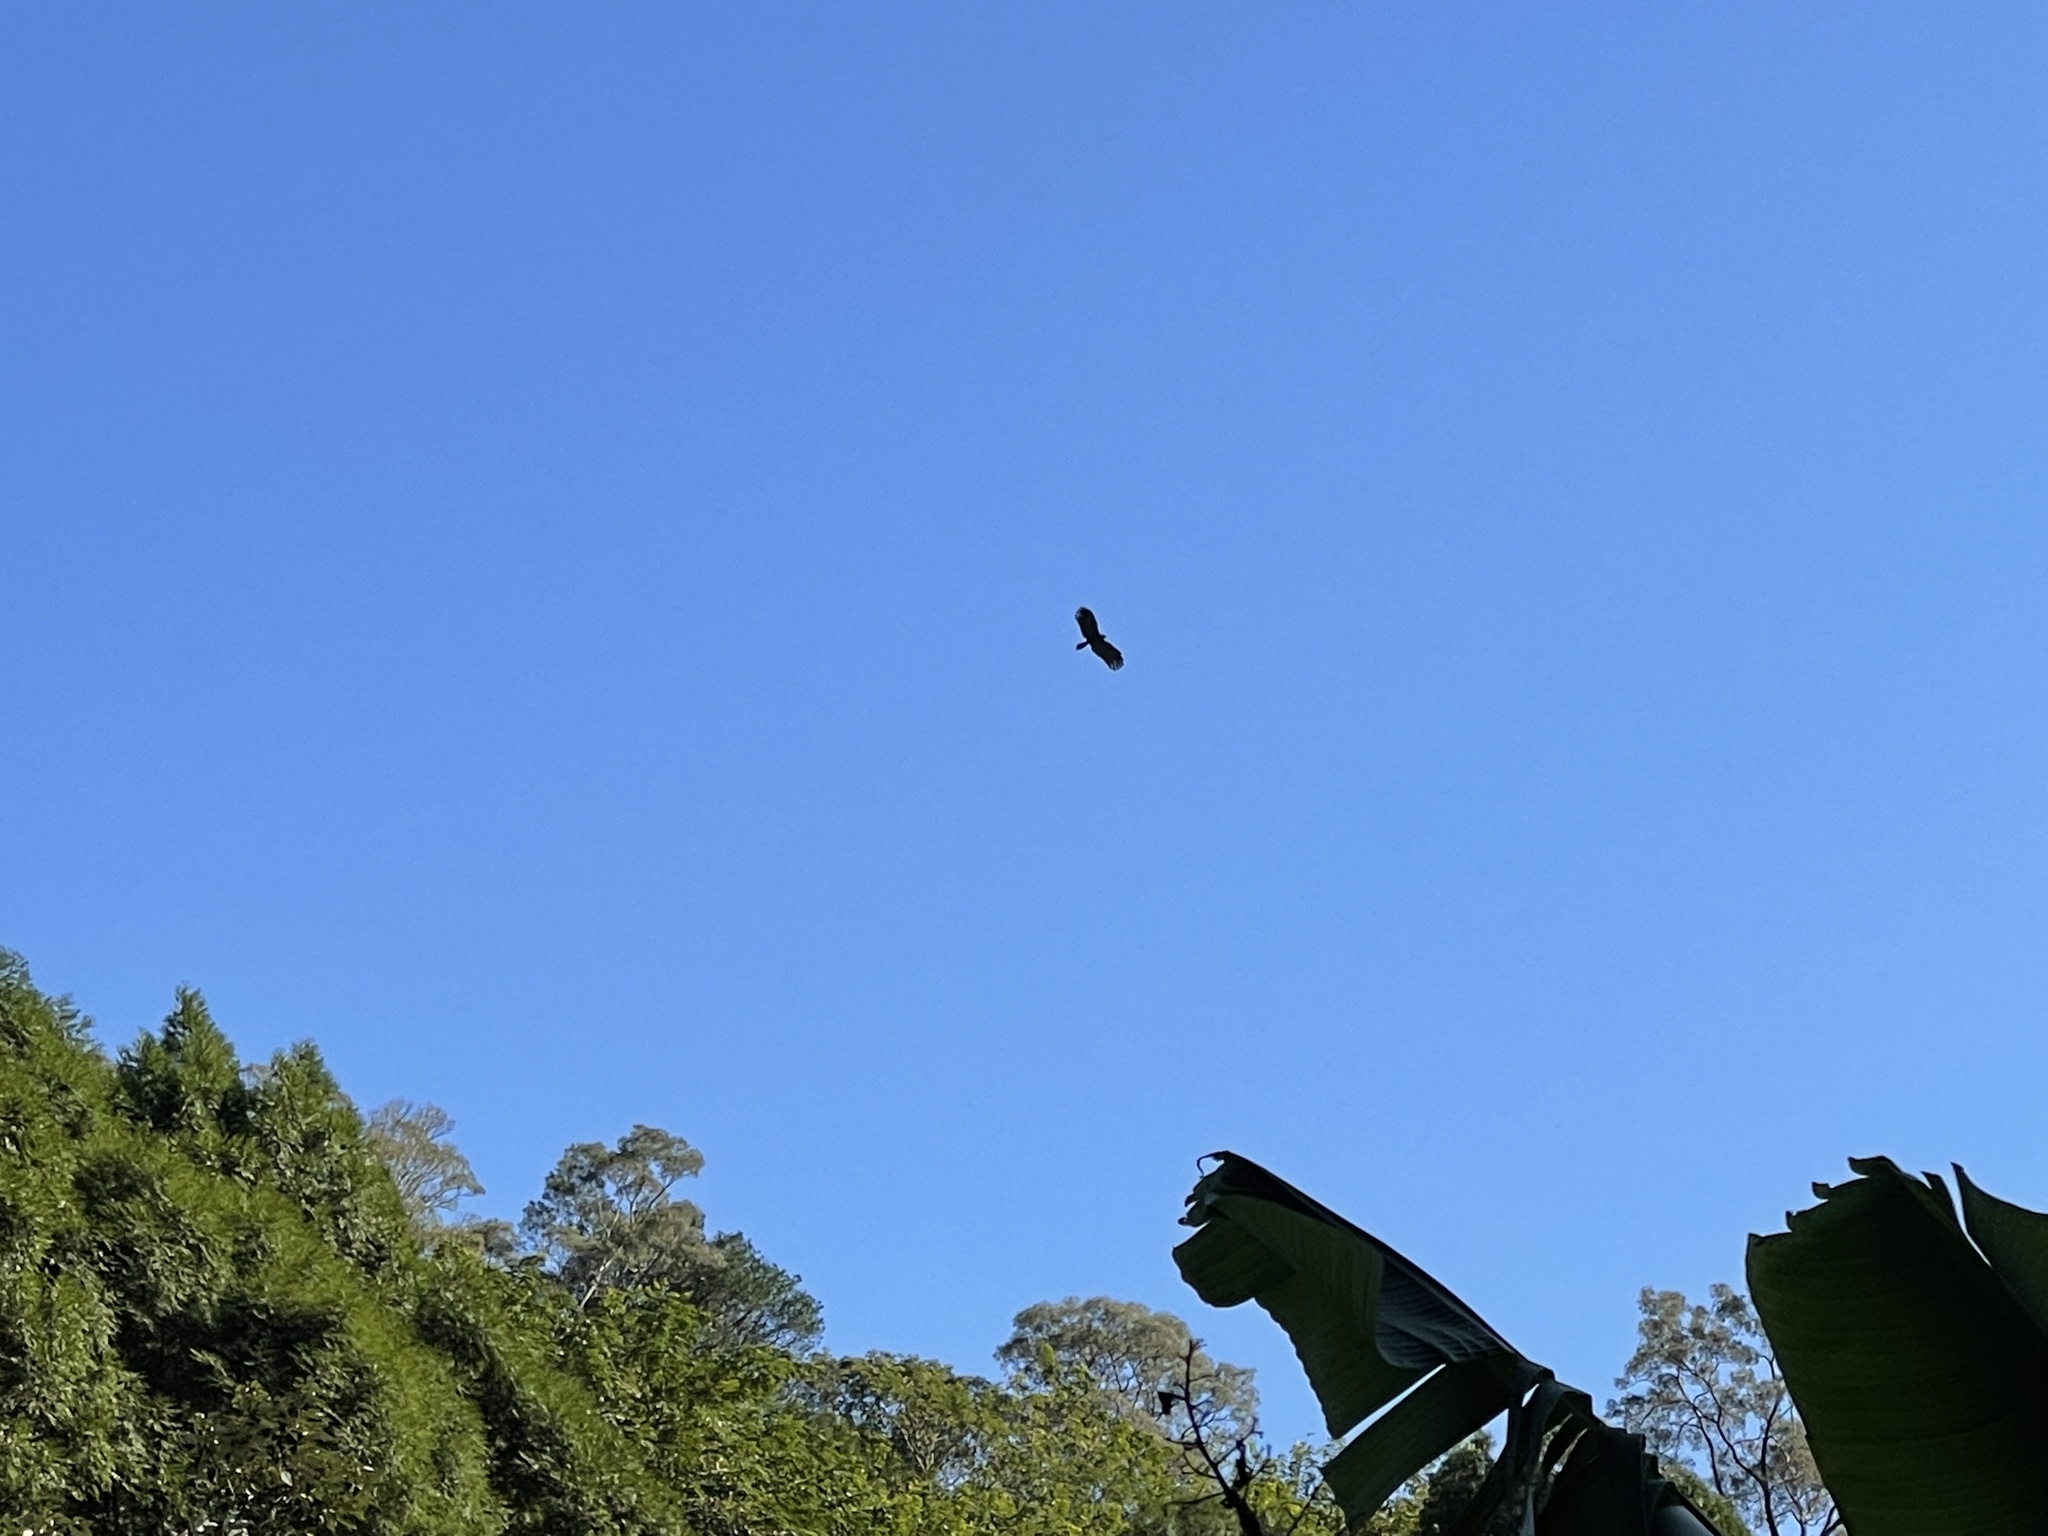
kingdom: Animalia
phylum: Chordata
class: Aves
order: Accipitriformes
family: Accipitridae
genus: Ictinaetus
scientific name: Ictinaetus malayensis
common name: Black eagle
